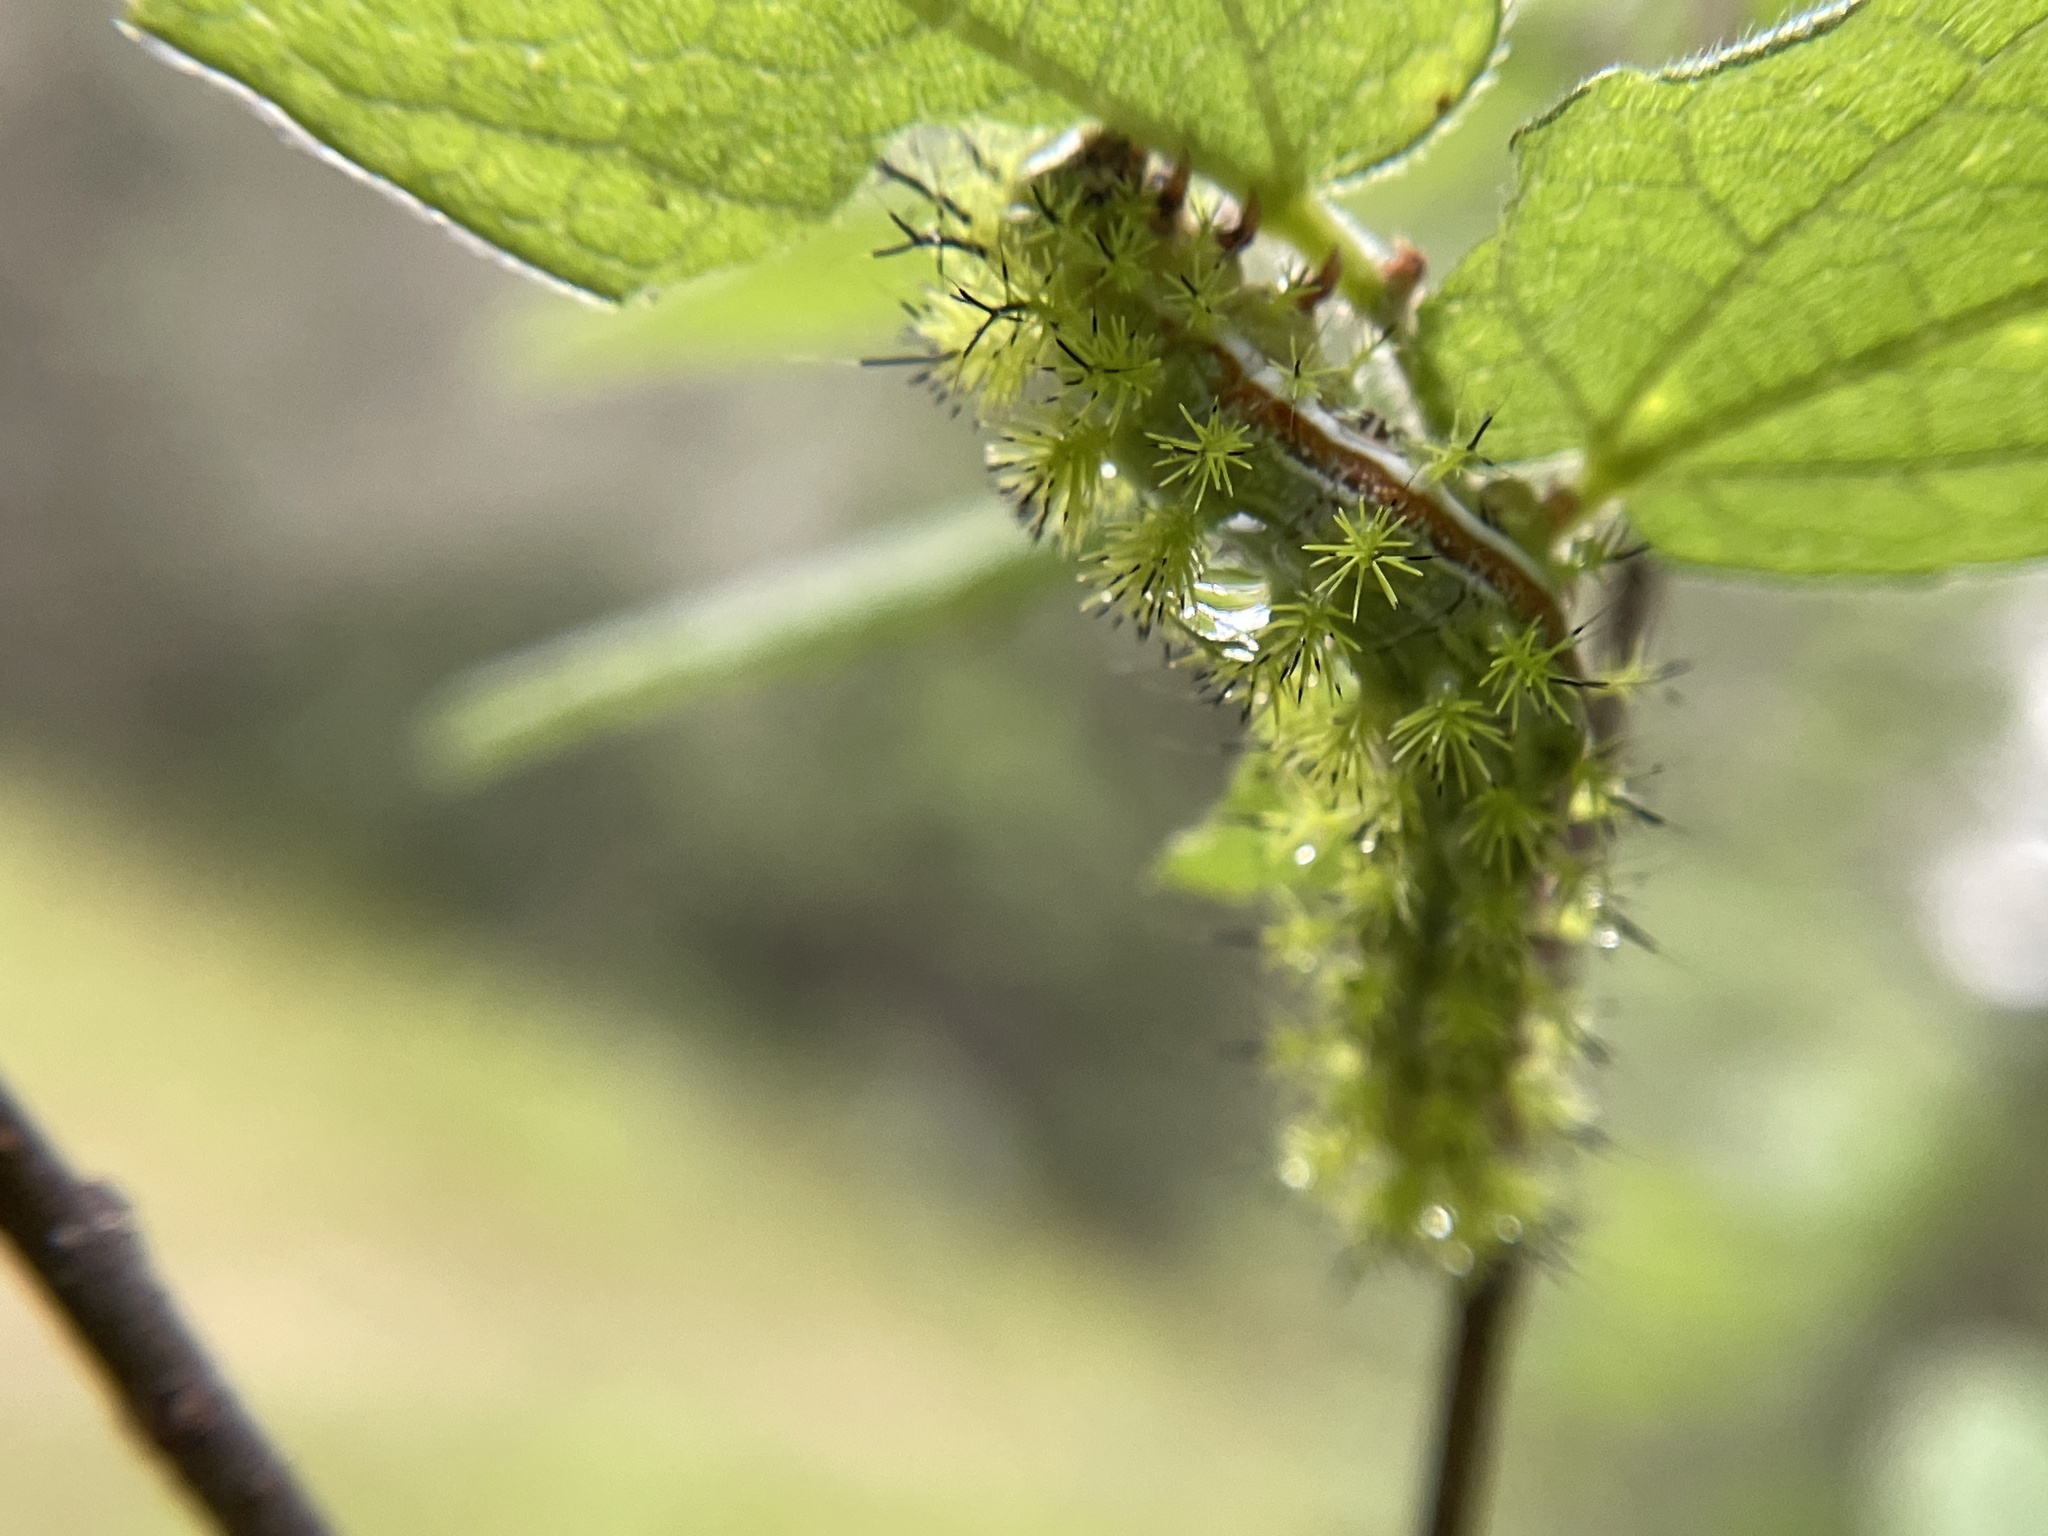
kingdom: Animalia
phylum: Arthropoda
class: Insecta
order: Lepidoptera
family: Saturniidae
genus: Automeris
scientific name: Automeris io
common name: Io moth
